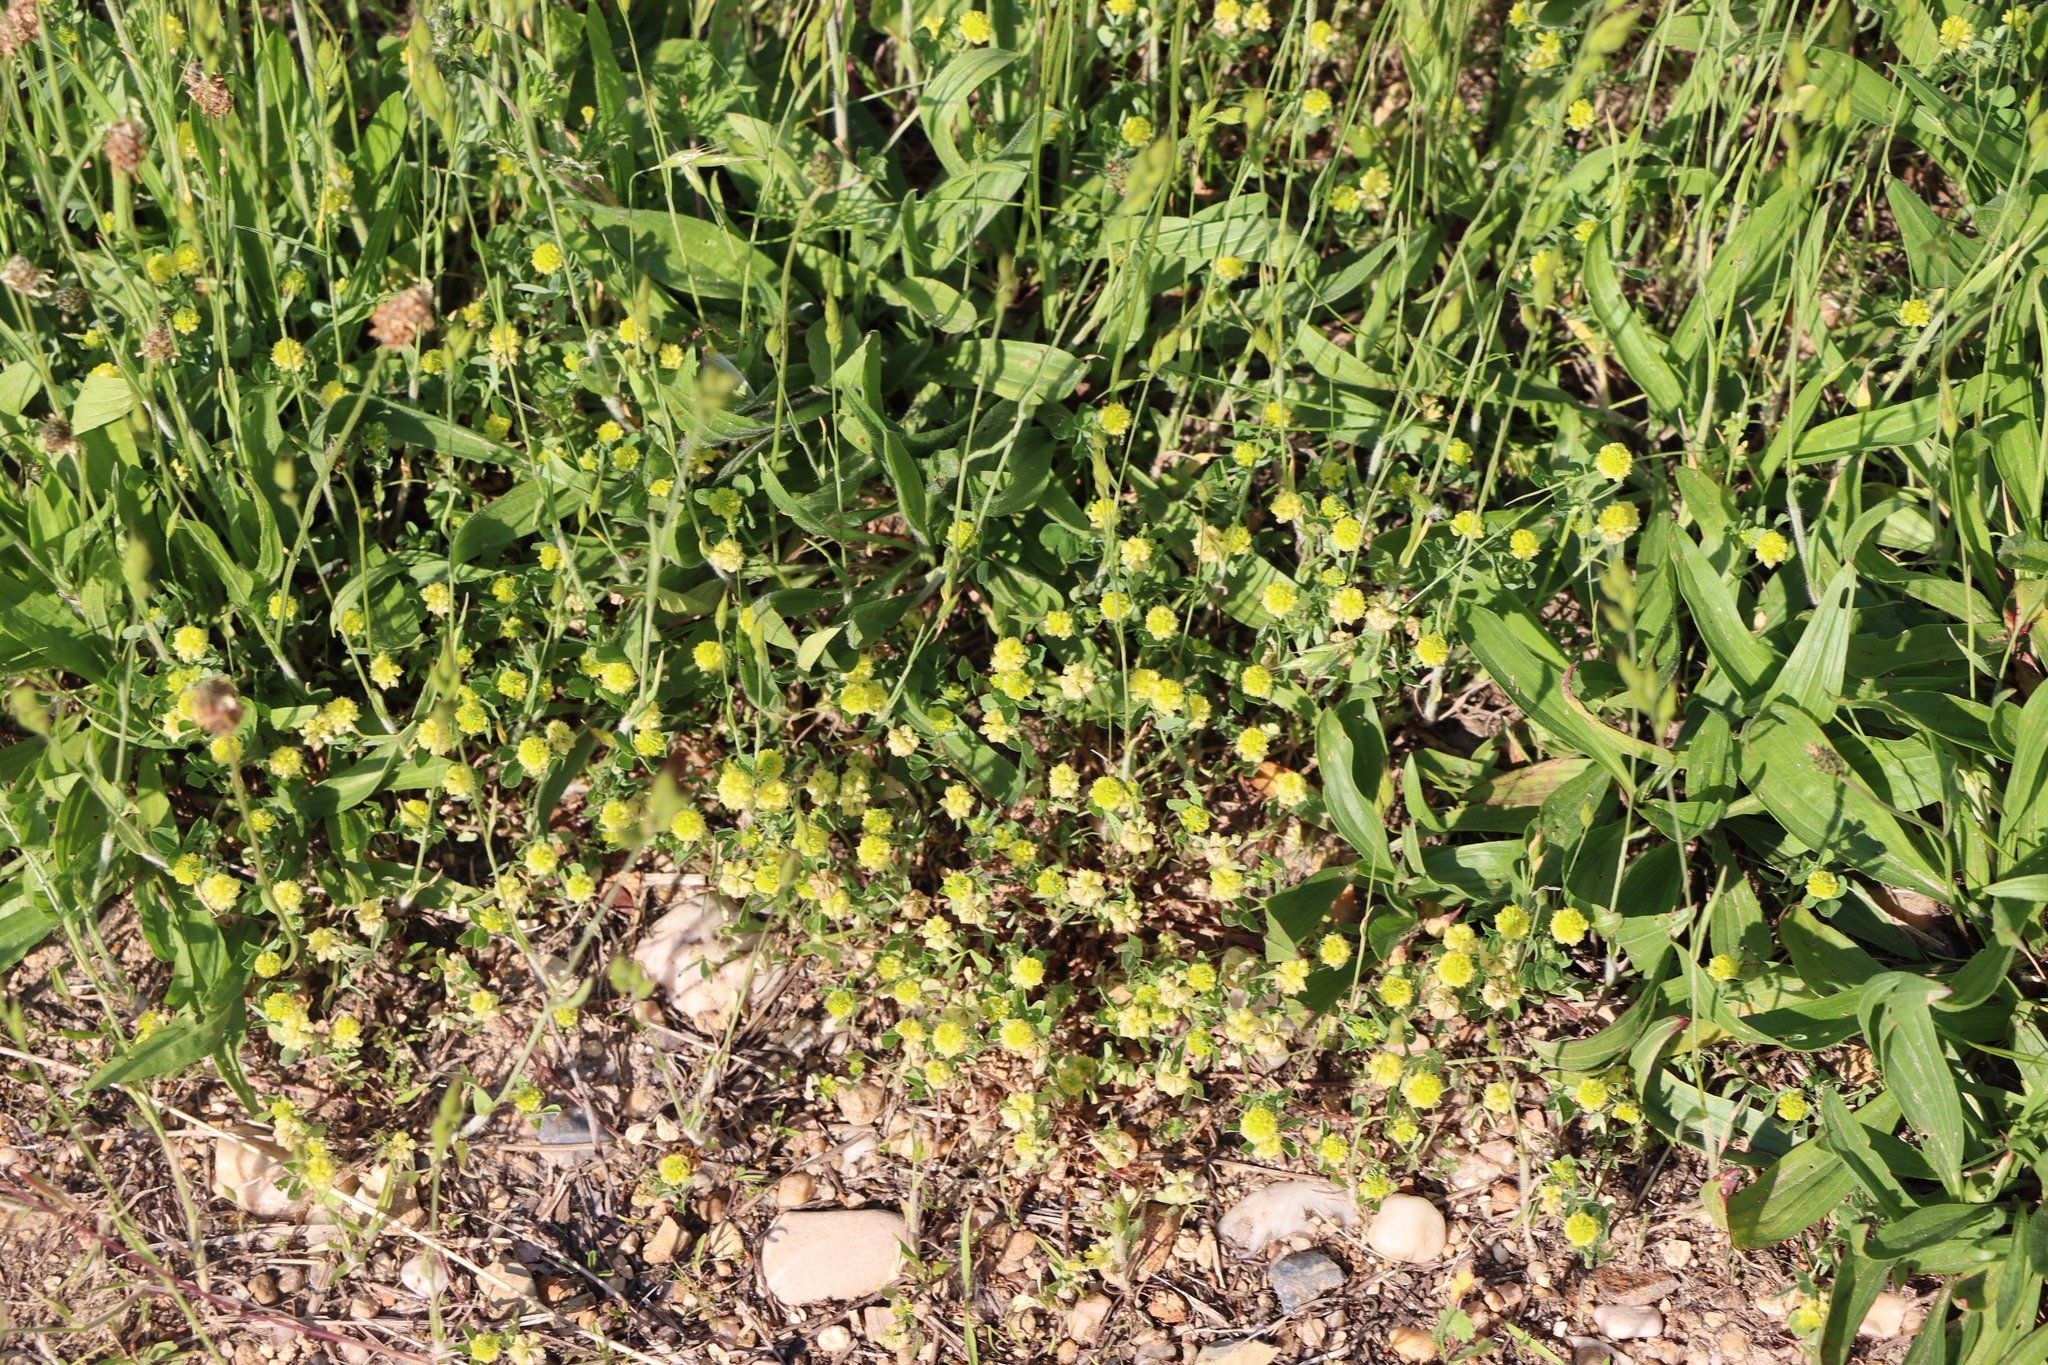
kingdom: Plantae
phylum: Tracheophyta
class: Magnoliopsida
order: Fabales
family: Fabaceae
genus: Trifolium
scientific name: Trifolium campestre
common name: Field clover
